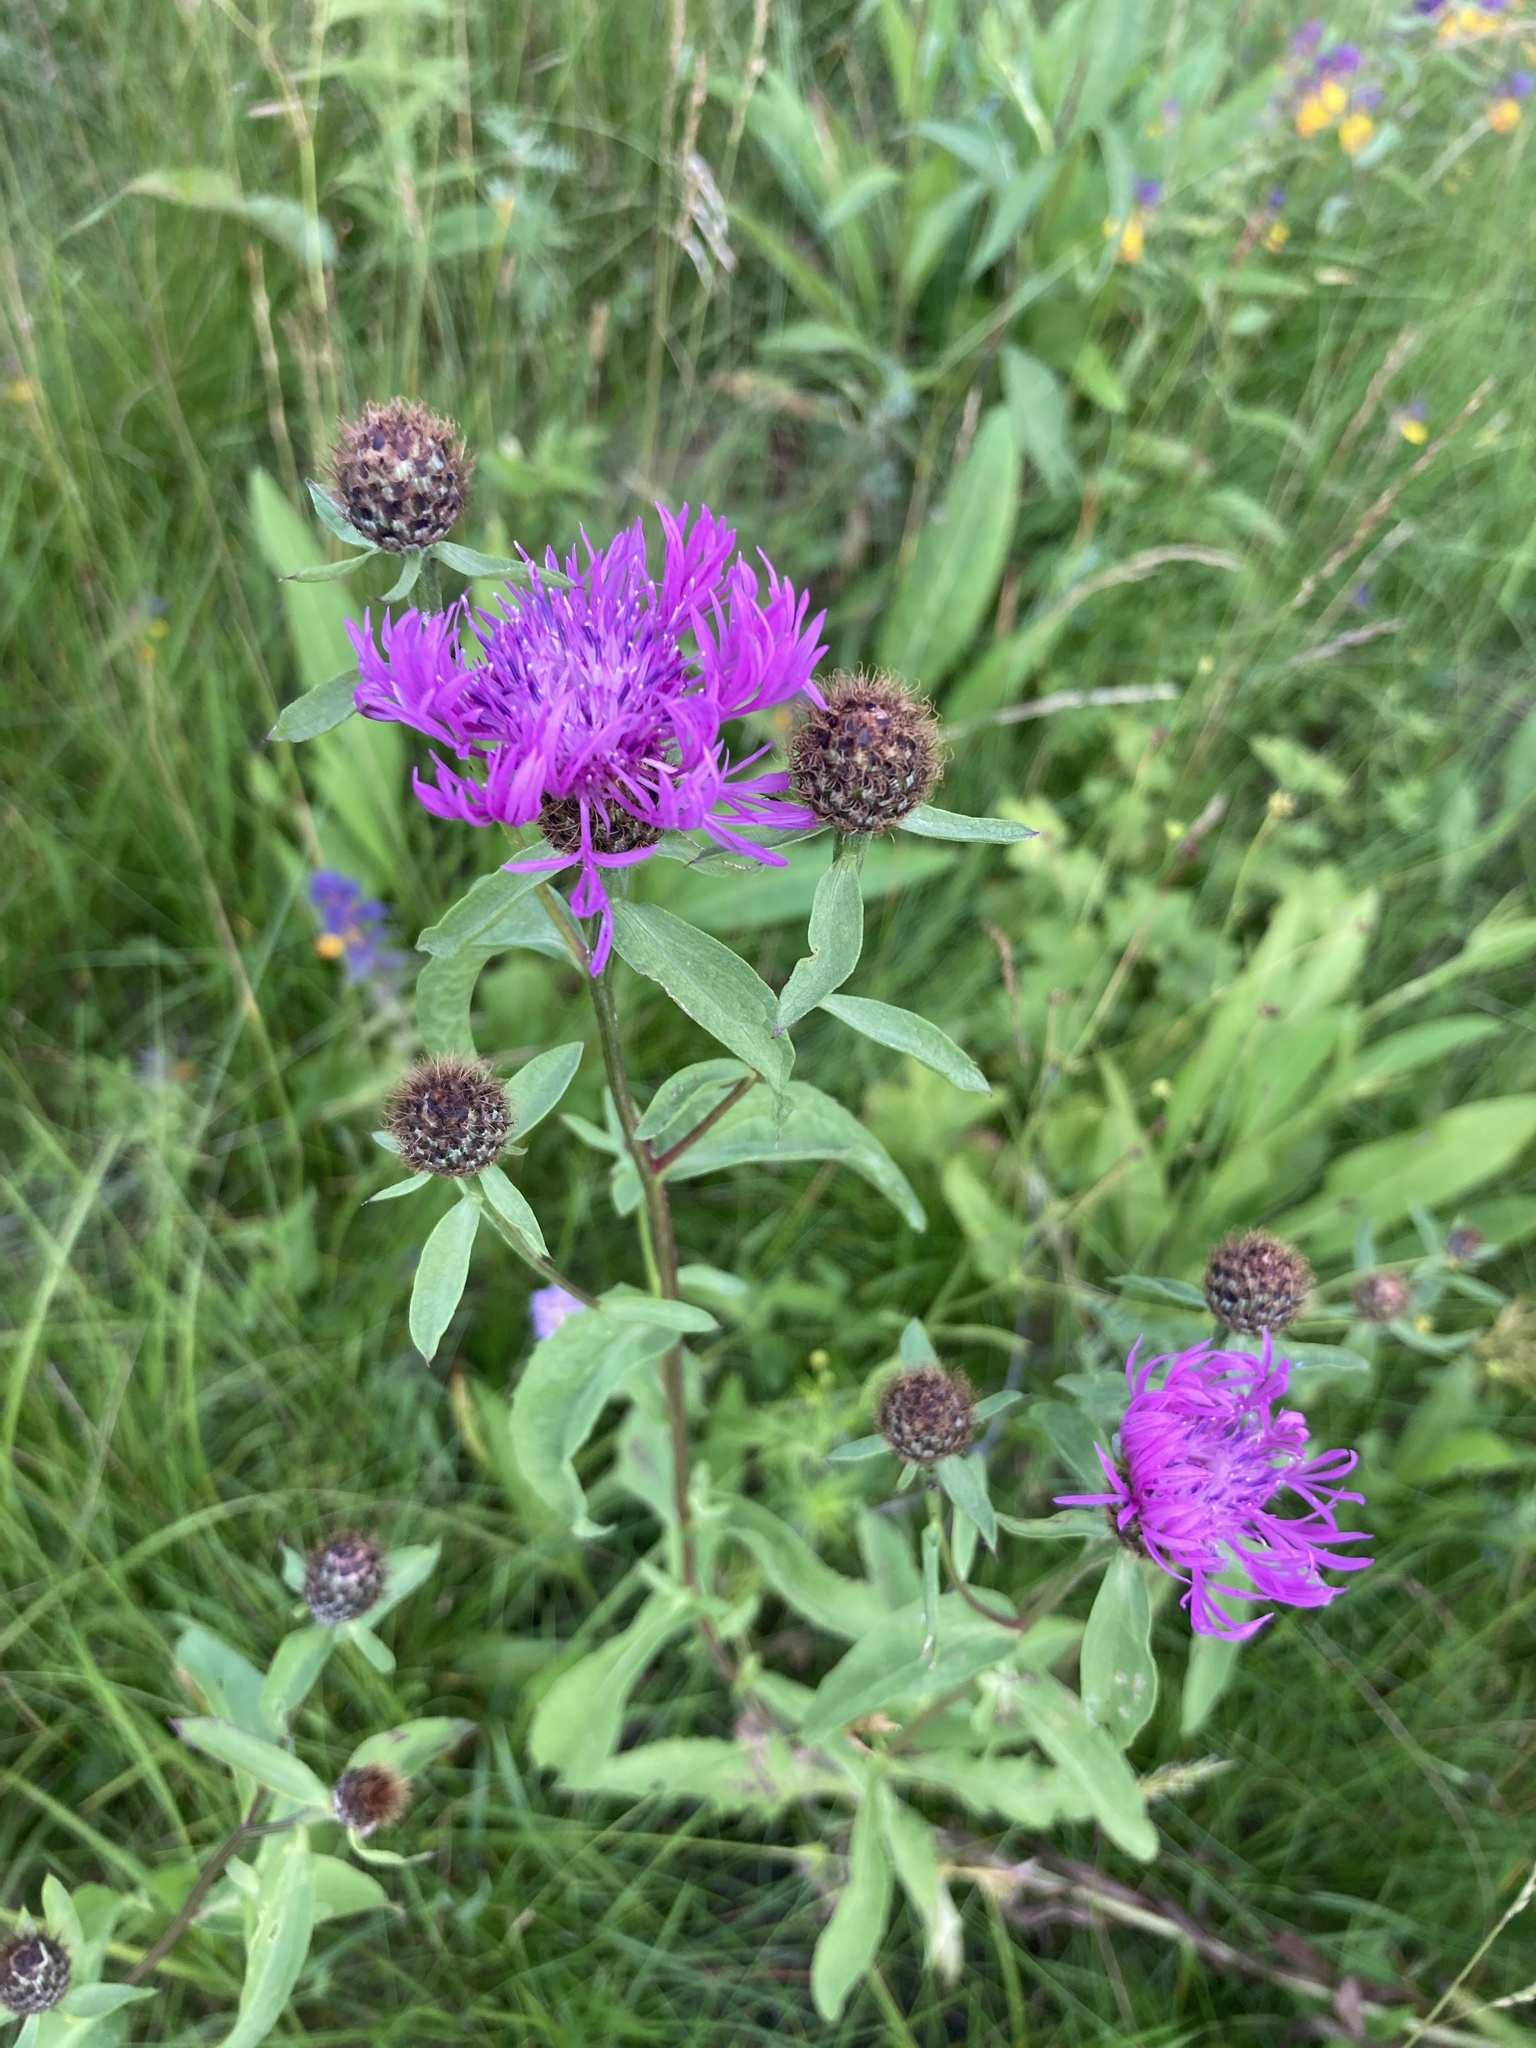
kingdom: Plantae
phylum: Tracheophyta
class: Magnoliopsida
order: Asterales
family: Asteraceae
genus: Centaurea
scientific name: Centaurea phrygia
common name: Wig knapweed
